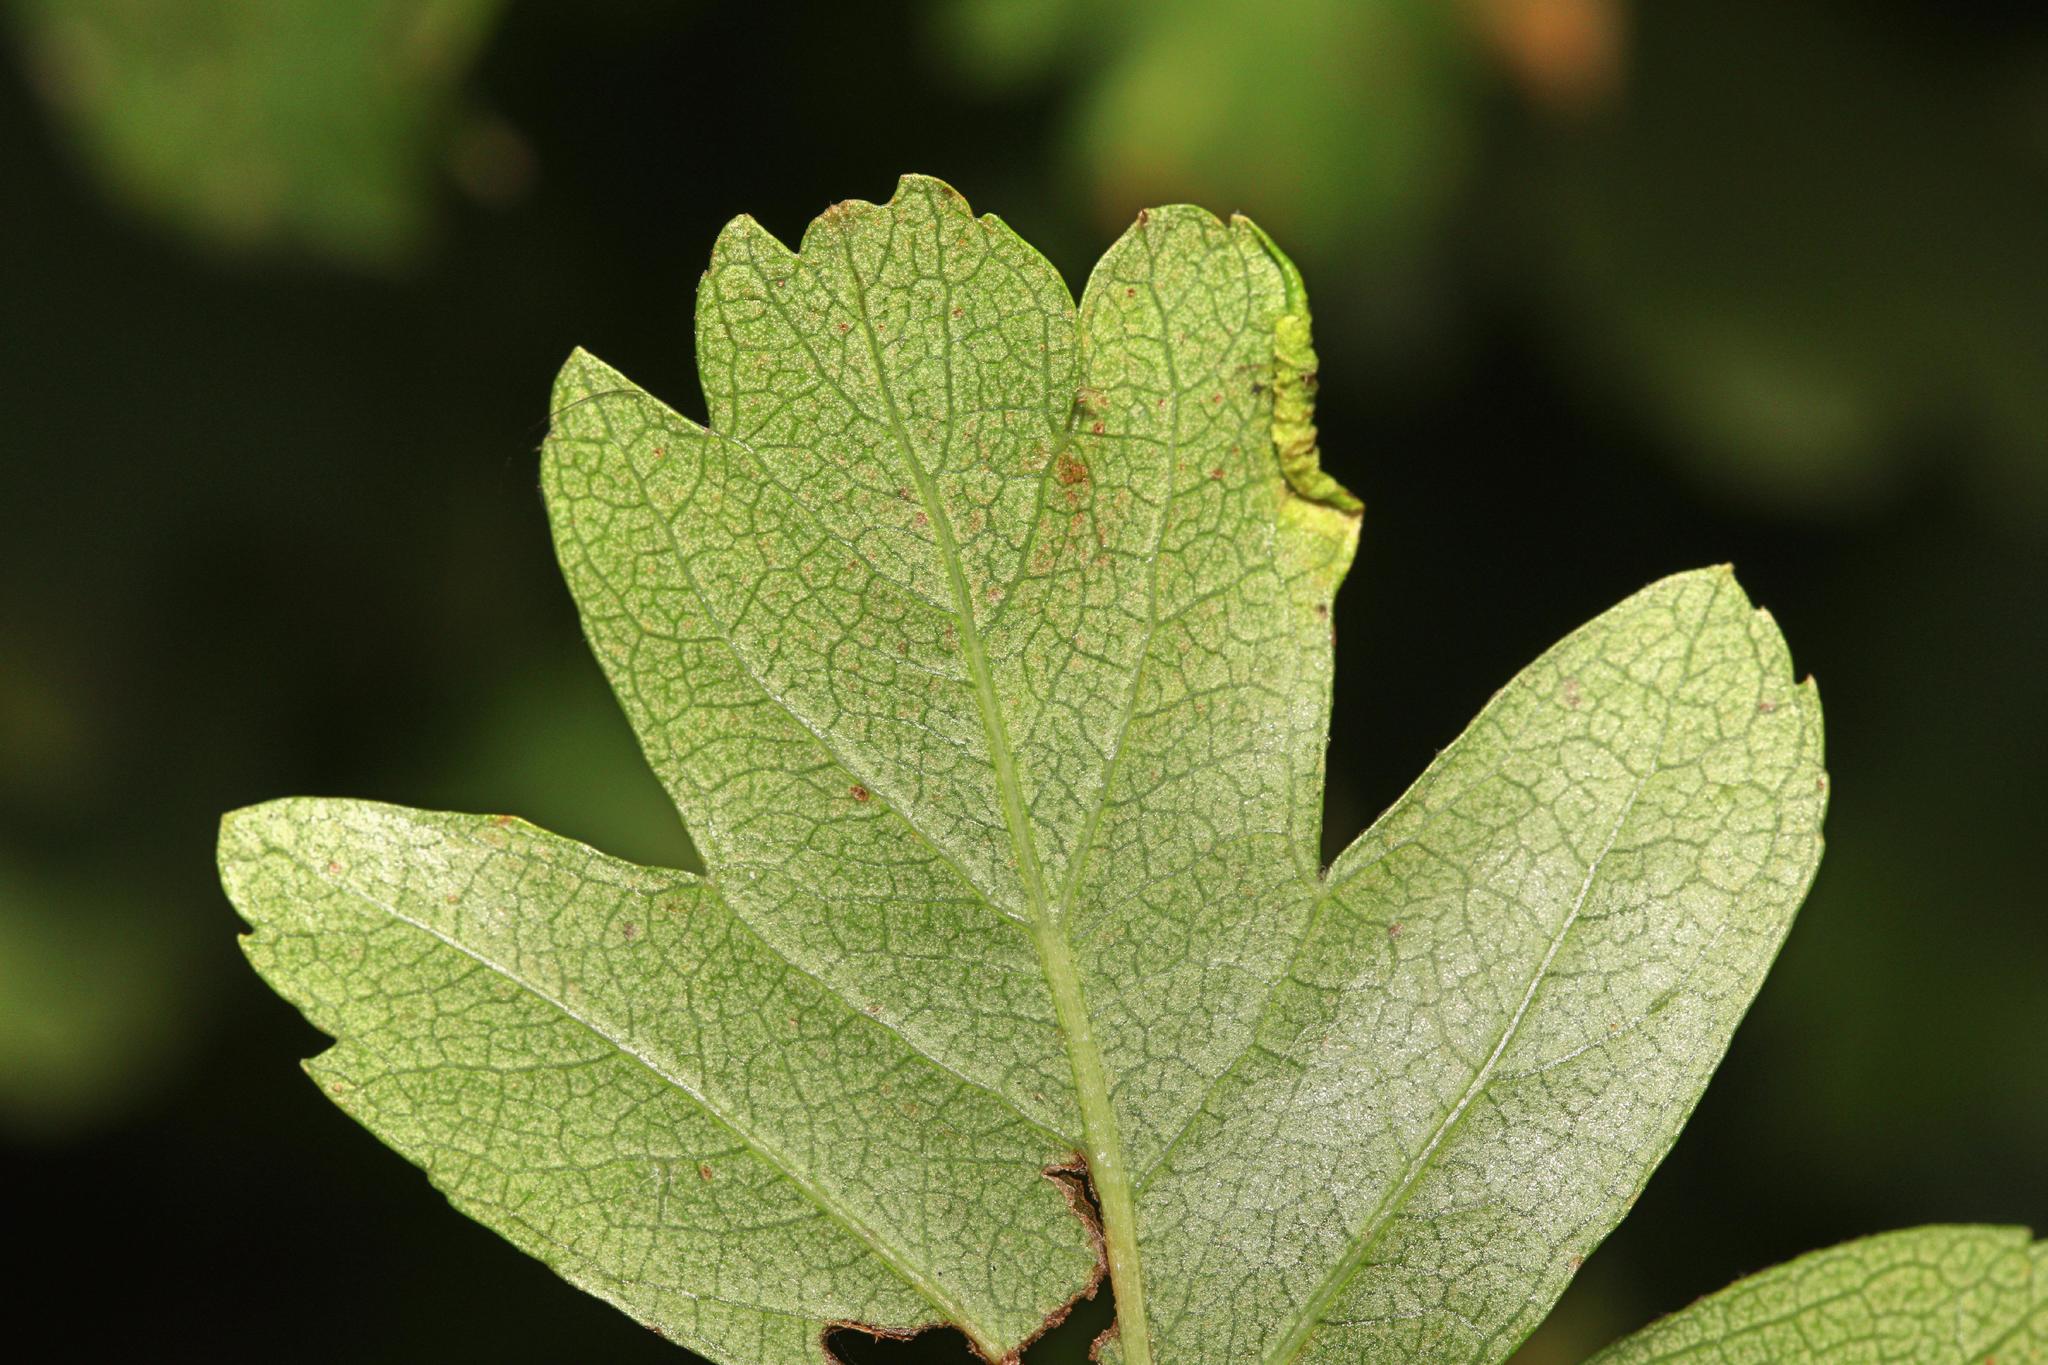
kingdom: Animalia
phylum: Arthropoda
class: Arachnida
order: Trombidiformes
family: Eriophyidae
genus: Phyllocoptes
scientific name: Phyllocoptes goniothorax
